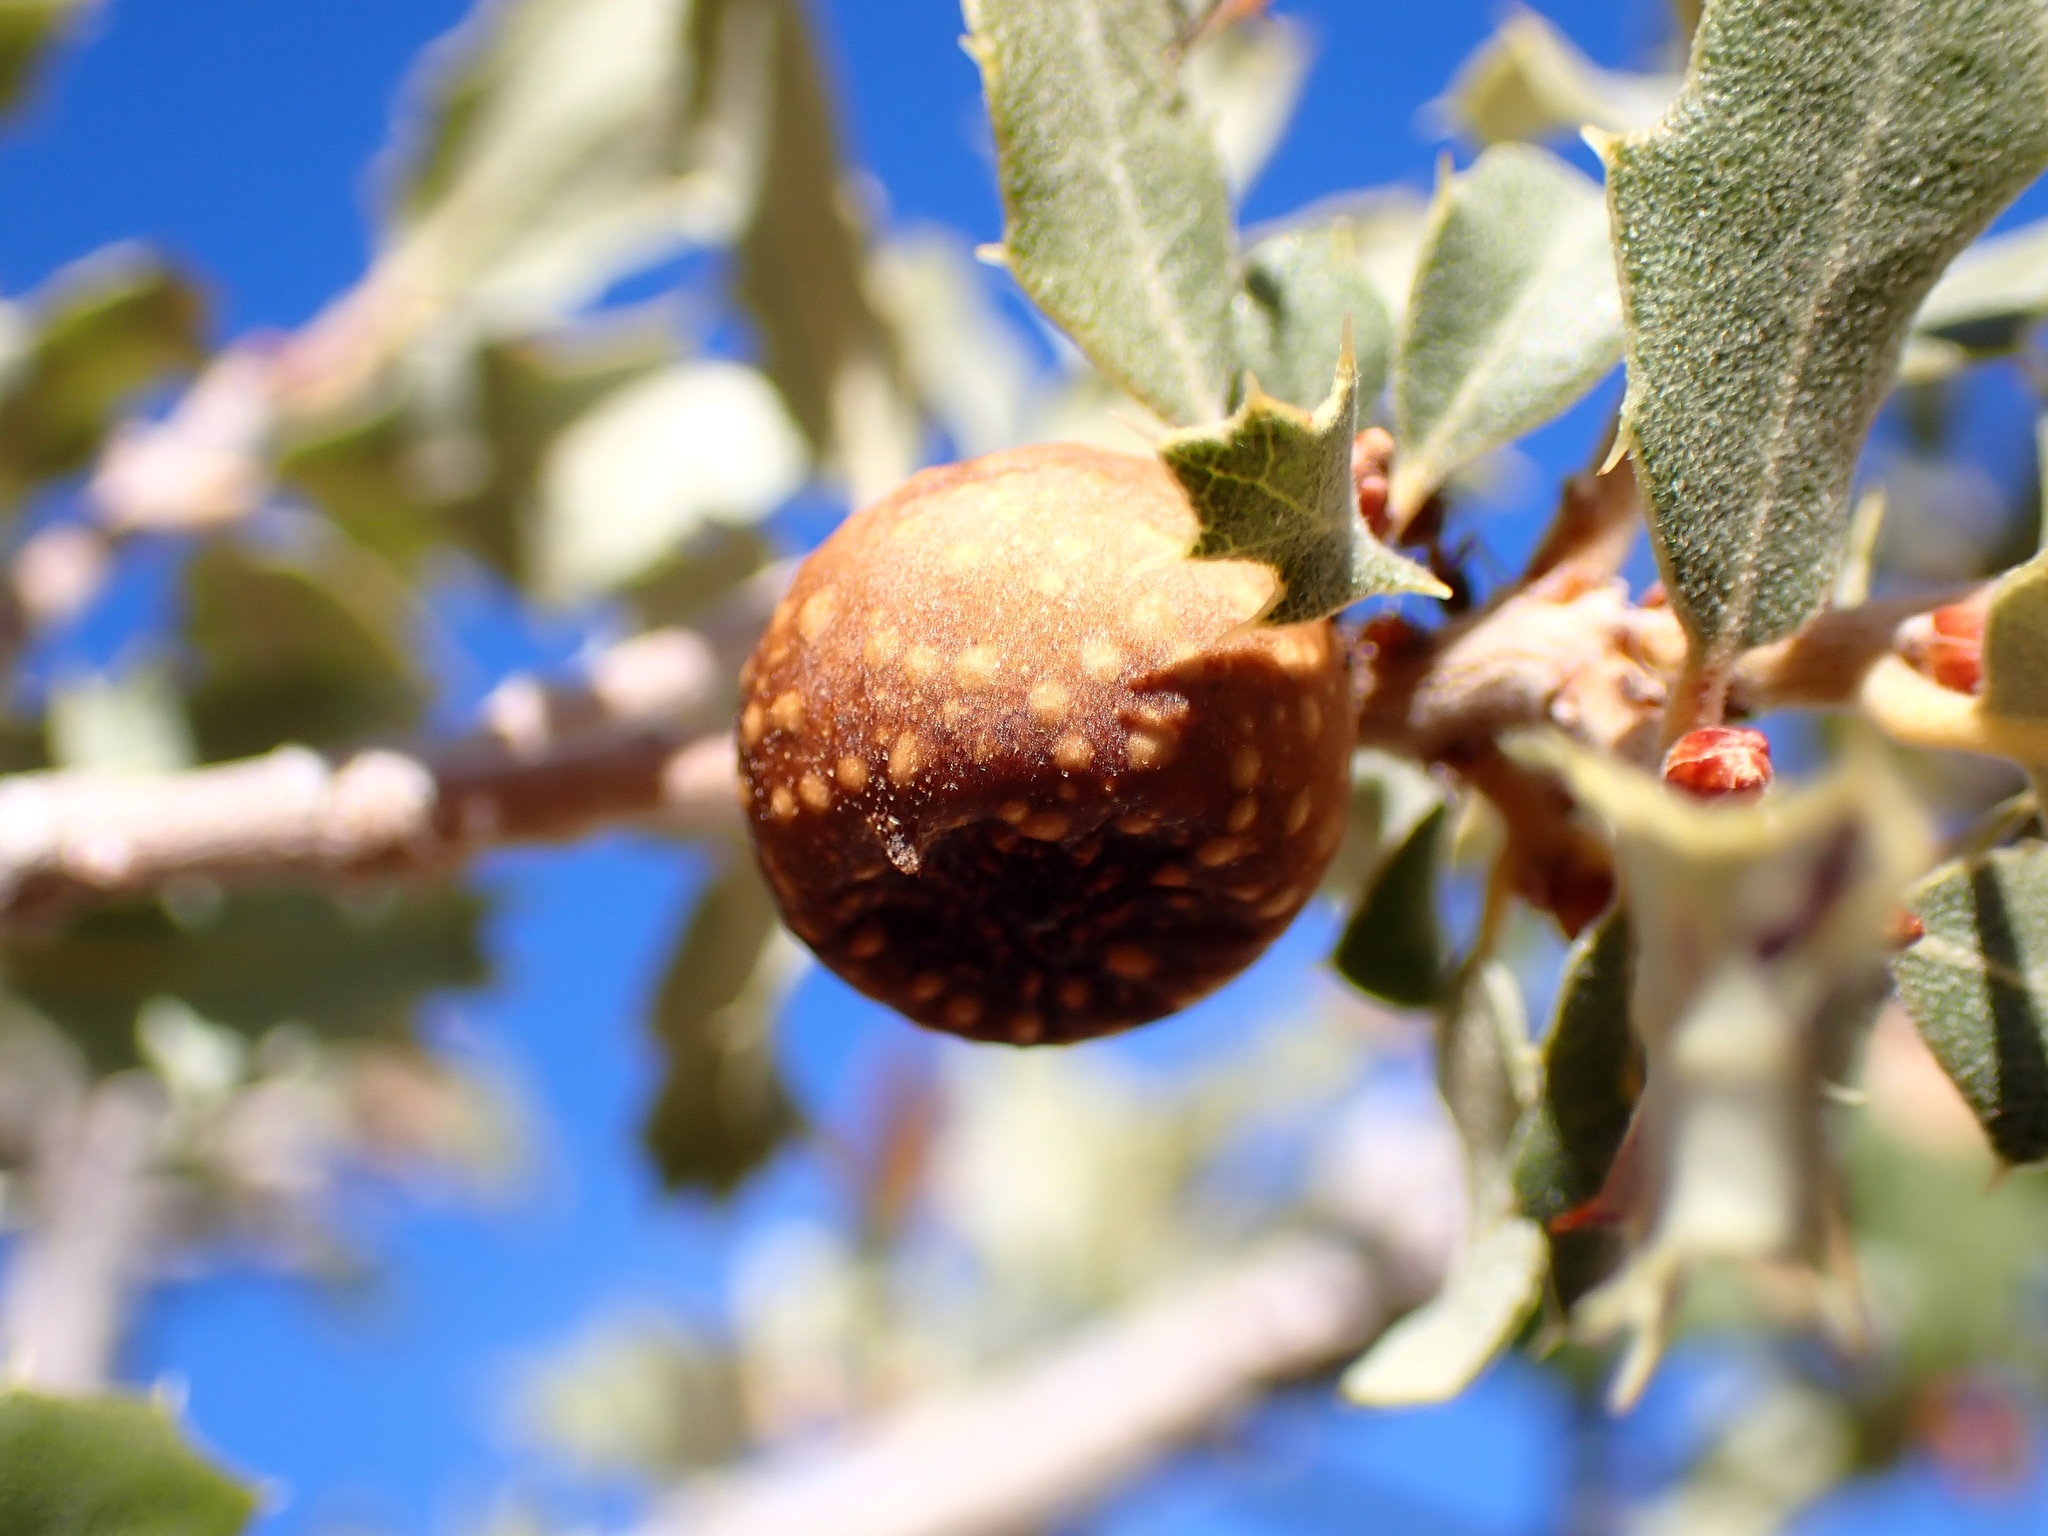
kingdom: Animalia
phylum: Arthropoda
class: Insecta
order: Hymenoptera
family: Cynipidae
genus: Burnettweldia
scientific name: Burnettweldia
